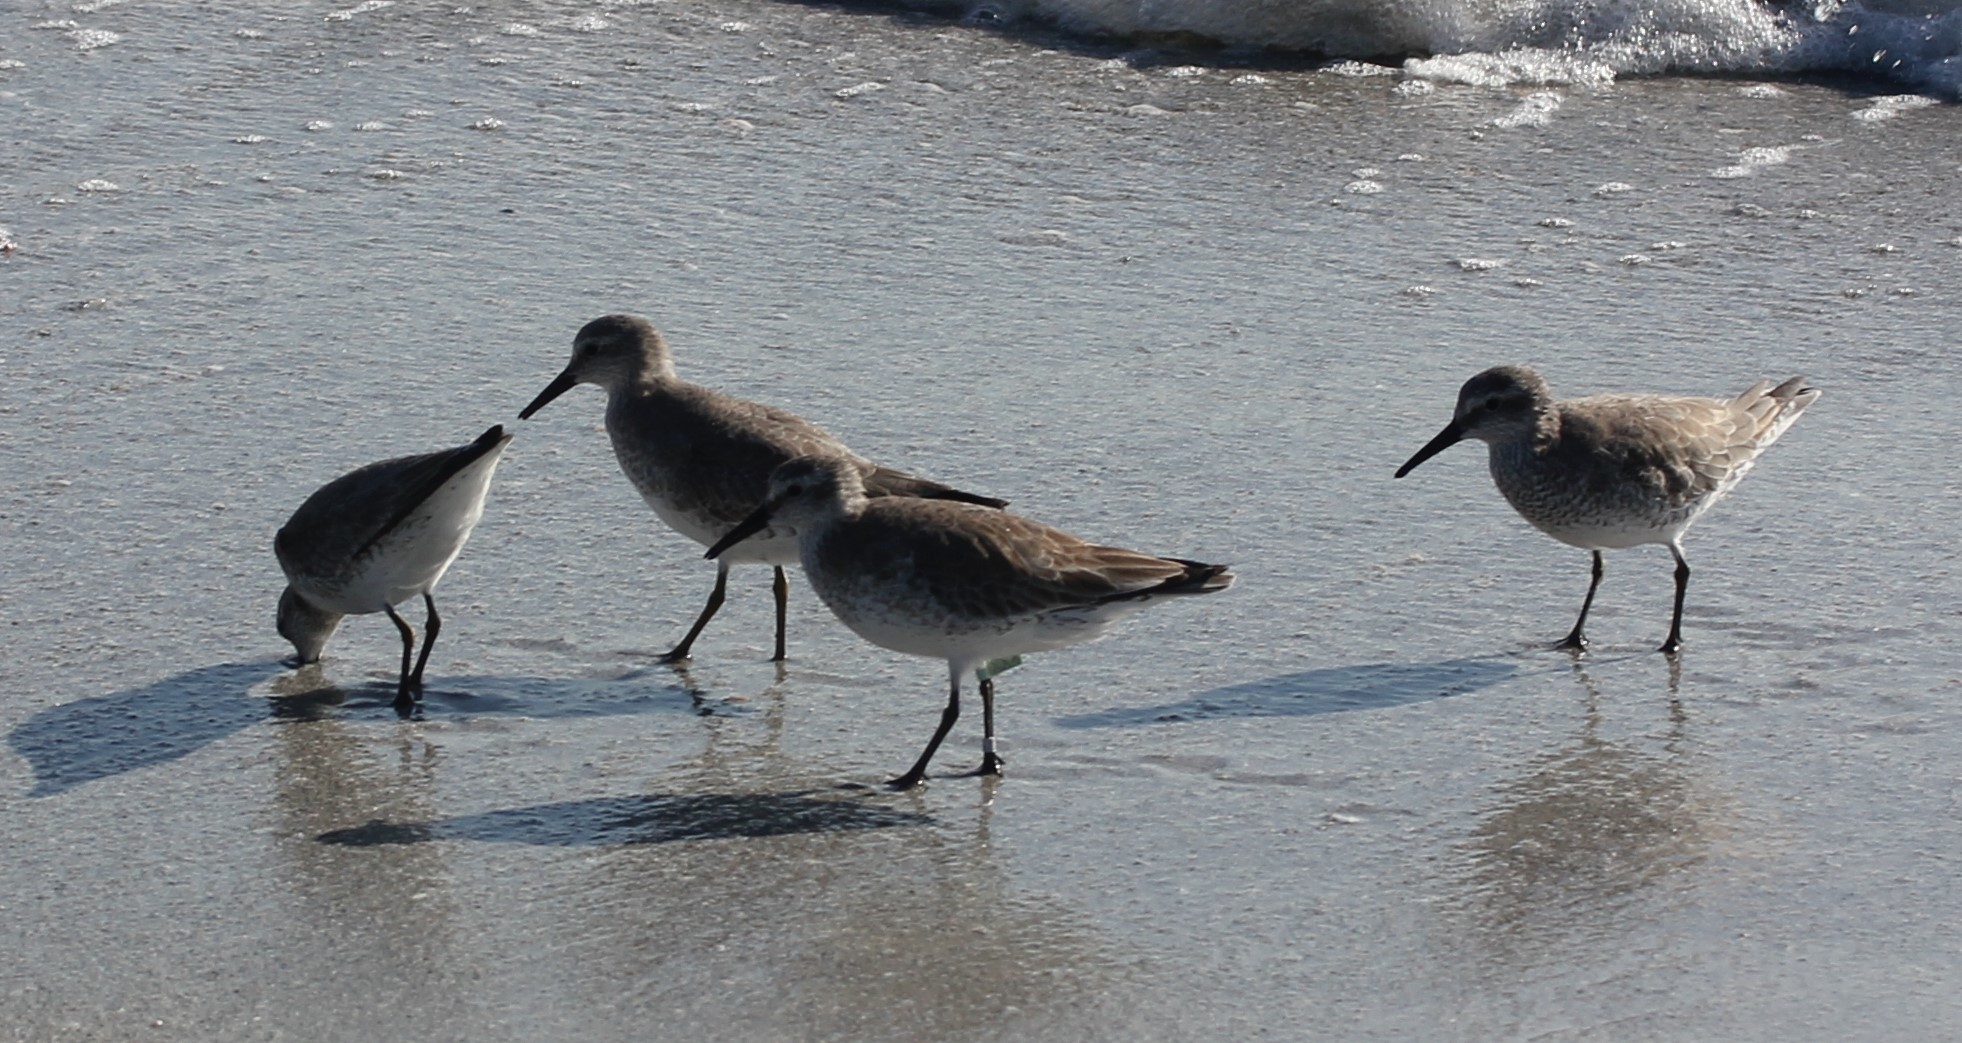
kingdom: Animalia
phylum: Chordata
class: Aves
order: Charadriiformes
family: Scolopacidae
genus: Calidris
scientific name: Calidris canutus
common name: Red knot
